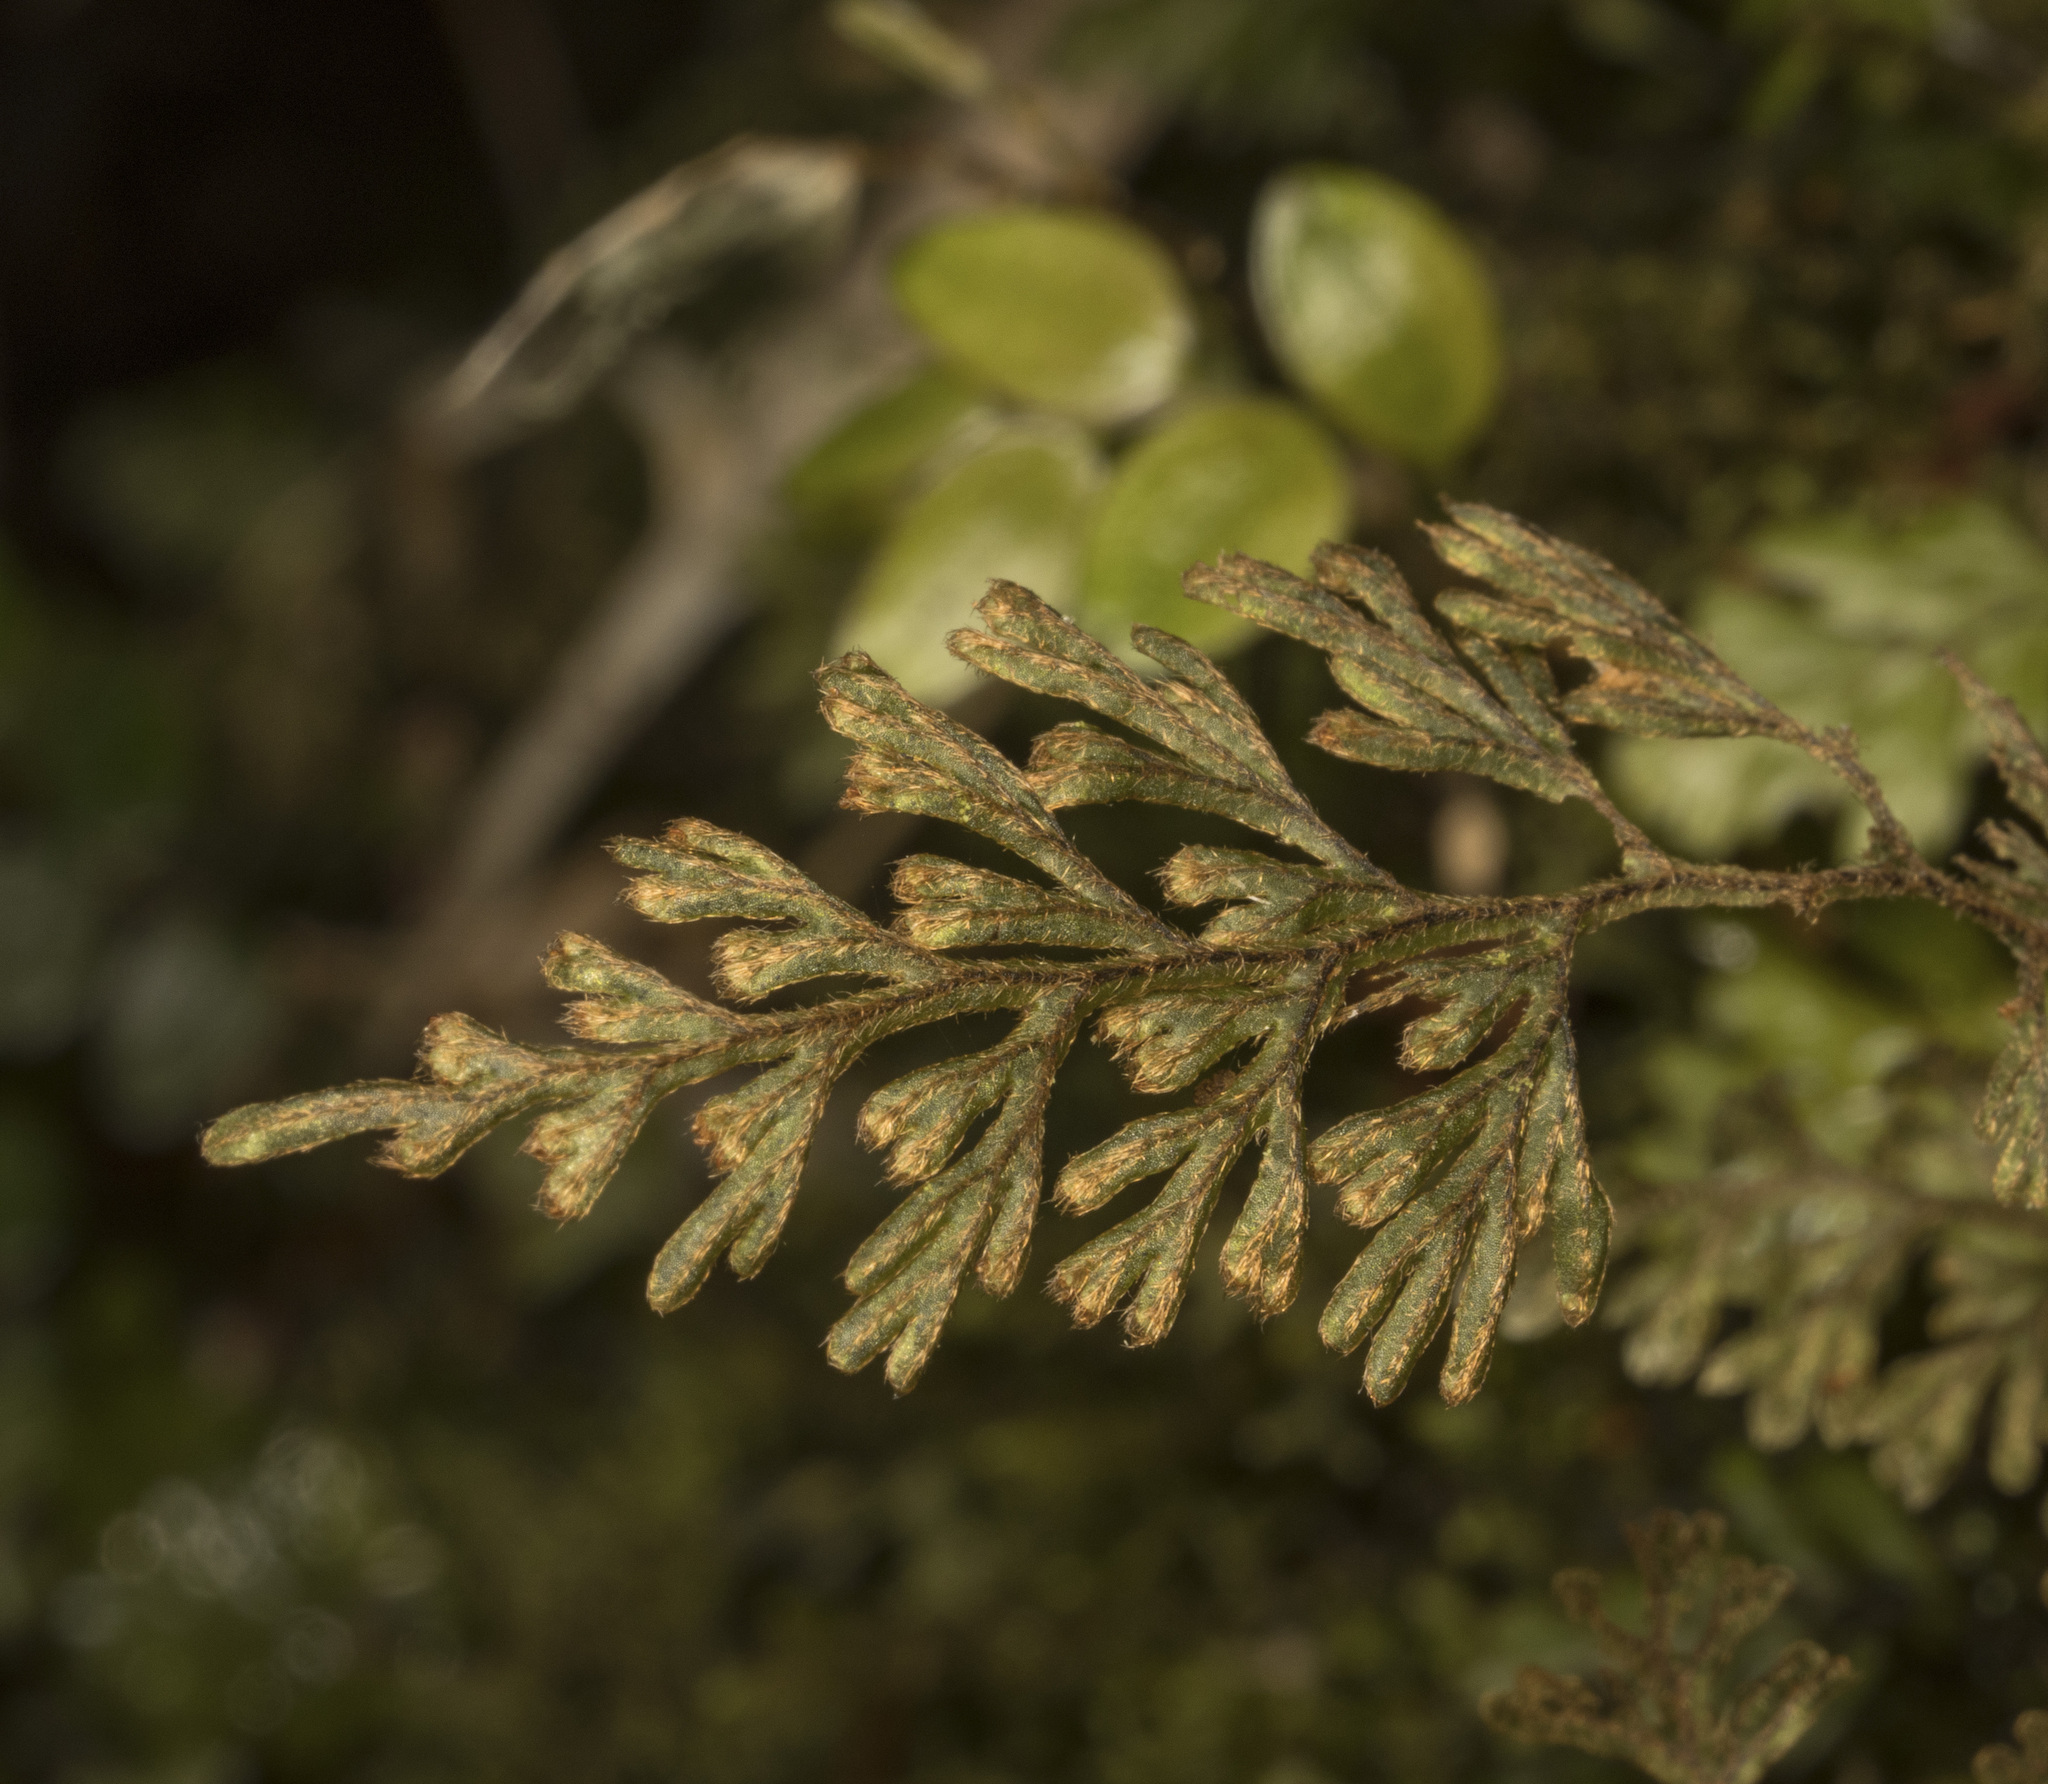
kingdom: Plantae
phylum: Tracheophyta
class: Polypodiopsida
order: Hymenophyllales
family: Hymenophyllaceae
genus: Hymenophyllum
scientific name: Hymenophyllum ferrugineum
